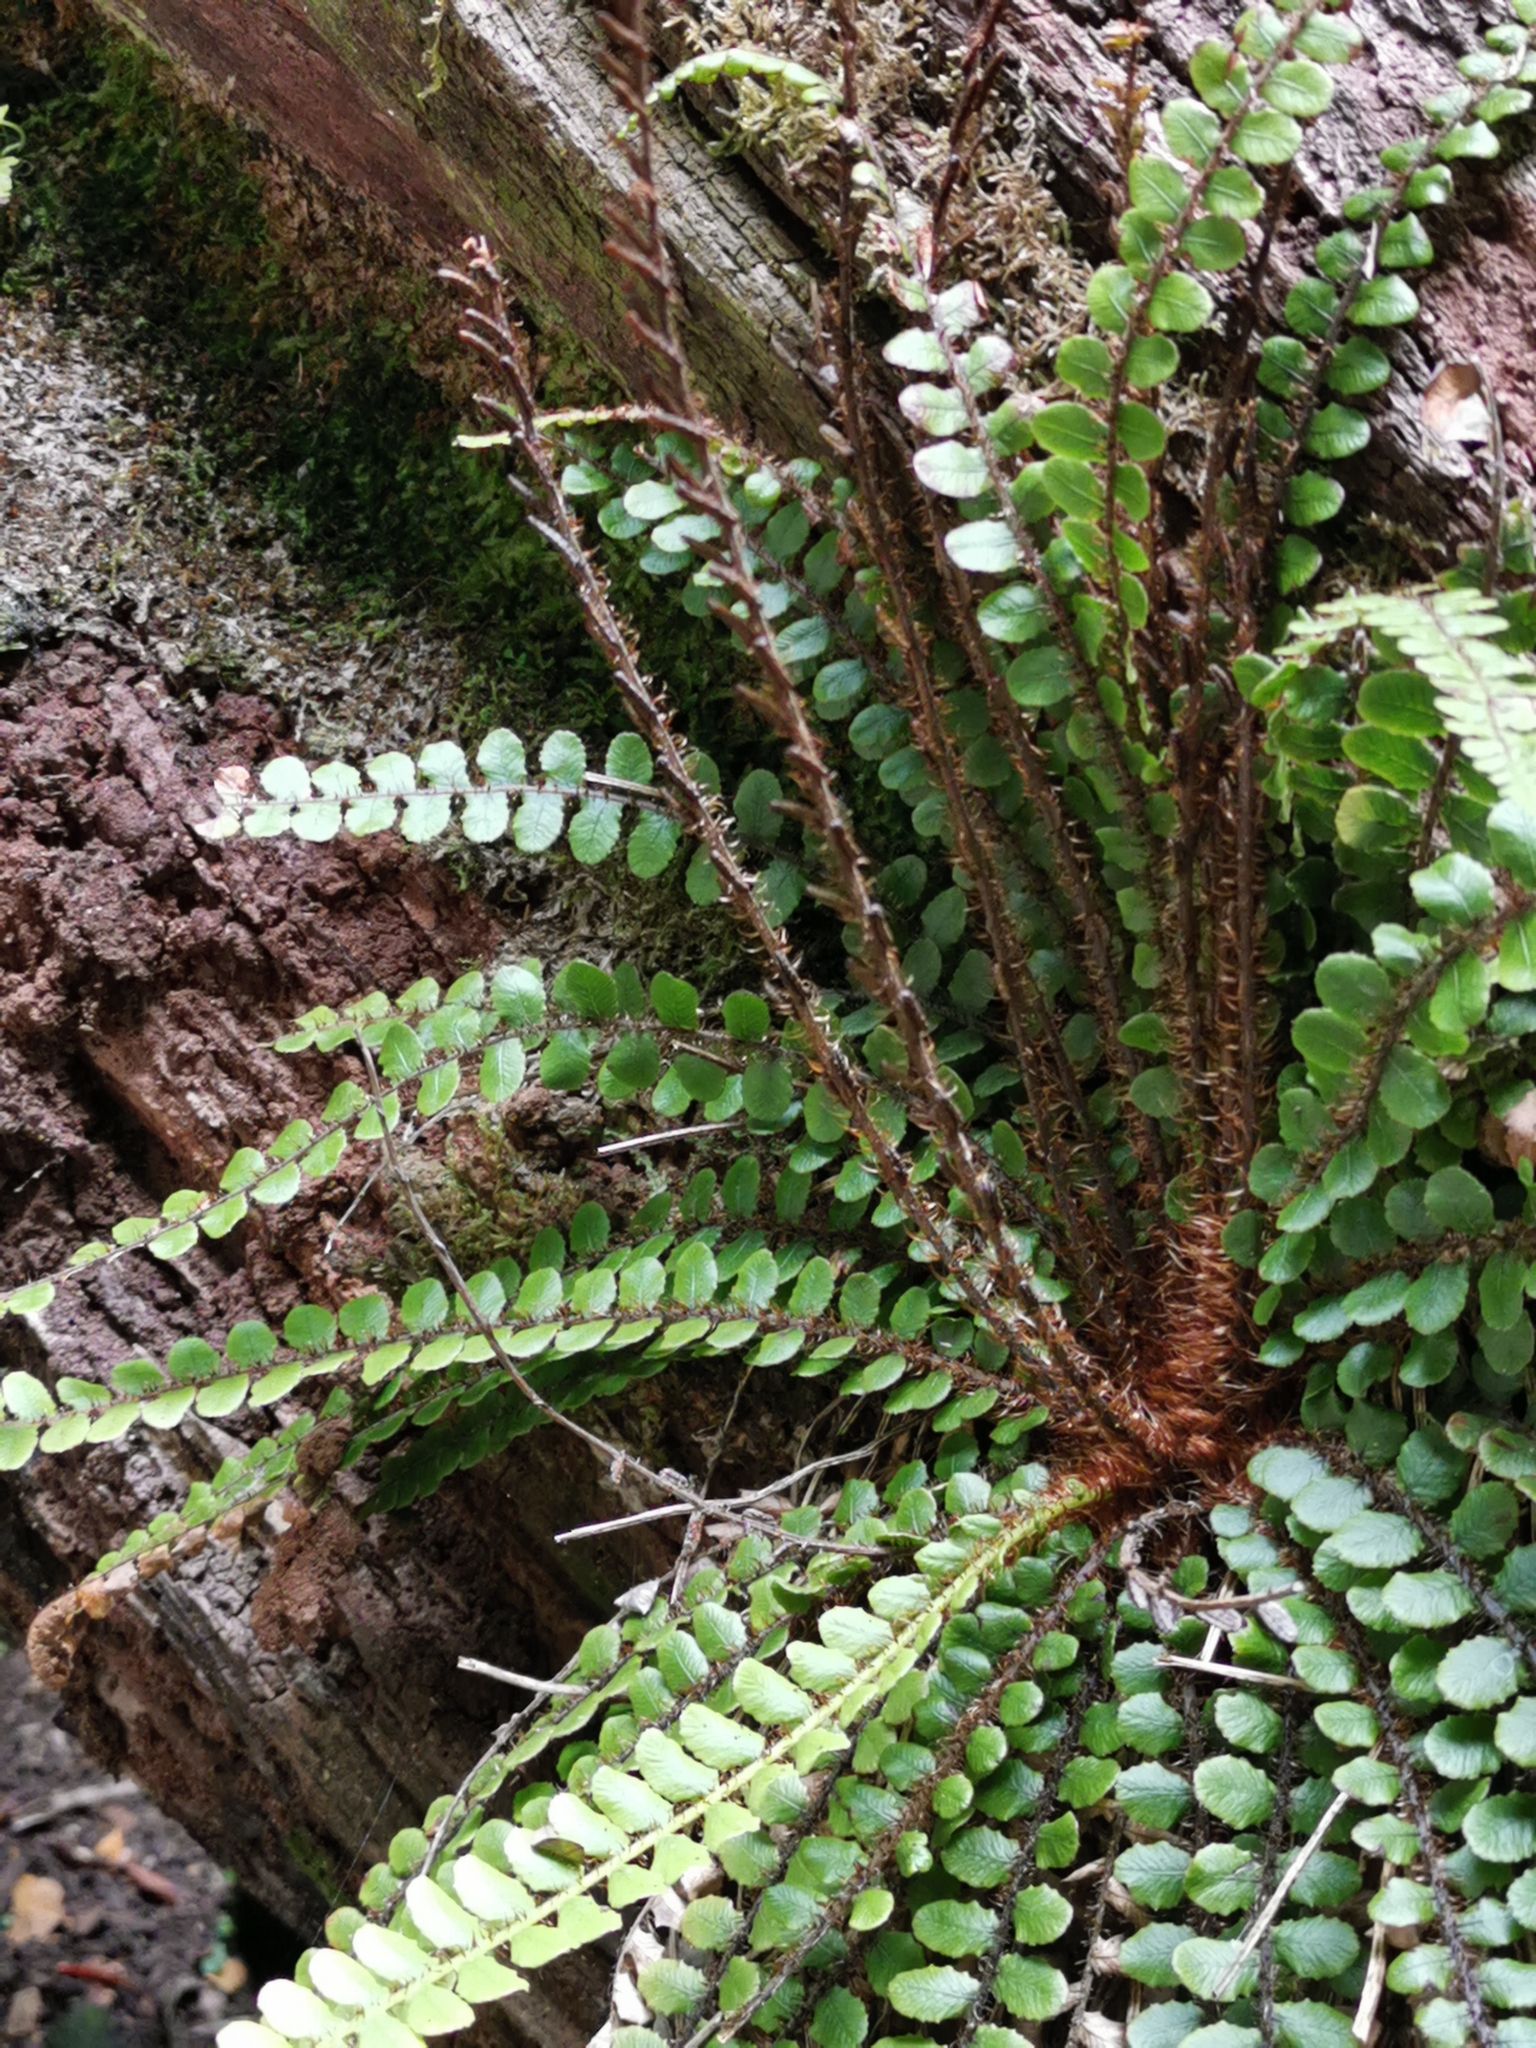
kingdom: Plantae
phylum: Tracheophyta
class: Polypodiopsida
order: Polypodiales
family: Blechnaceae
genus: Cranfillia
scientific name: Cranfillia fluviatilis
